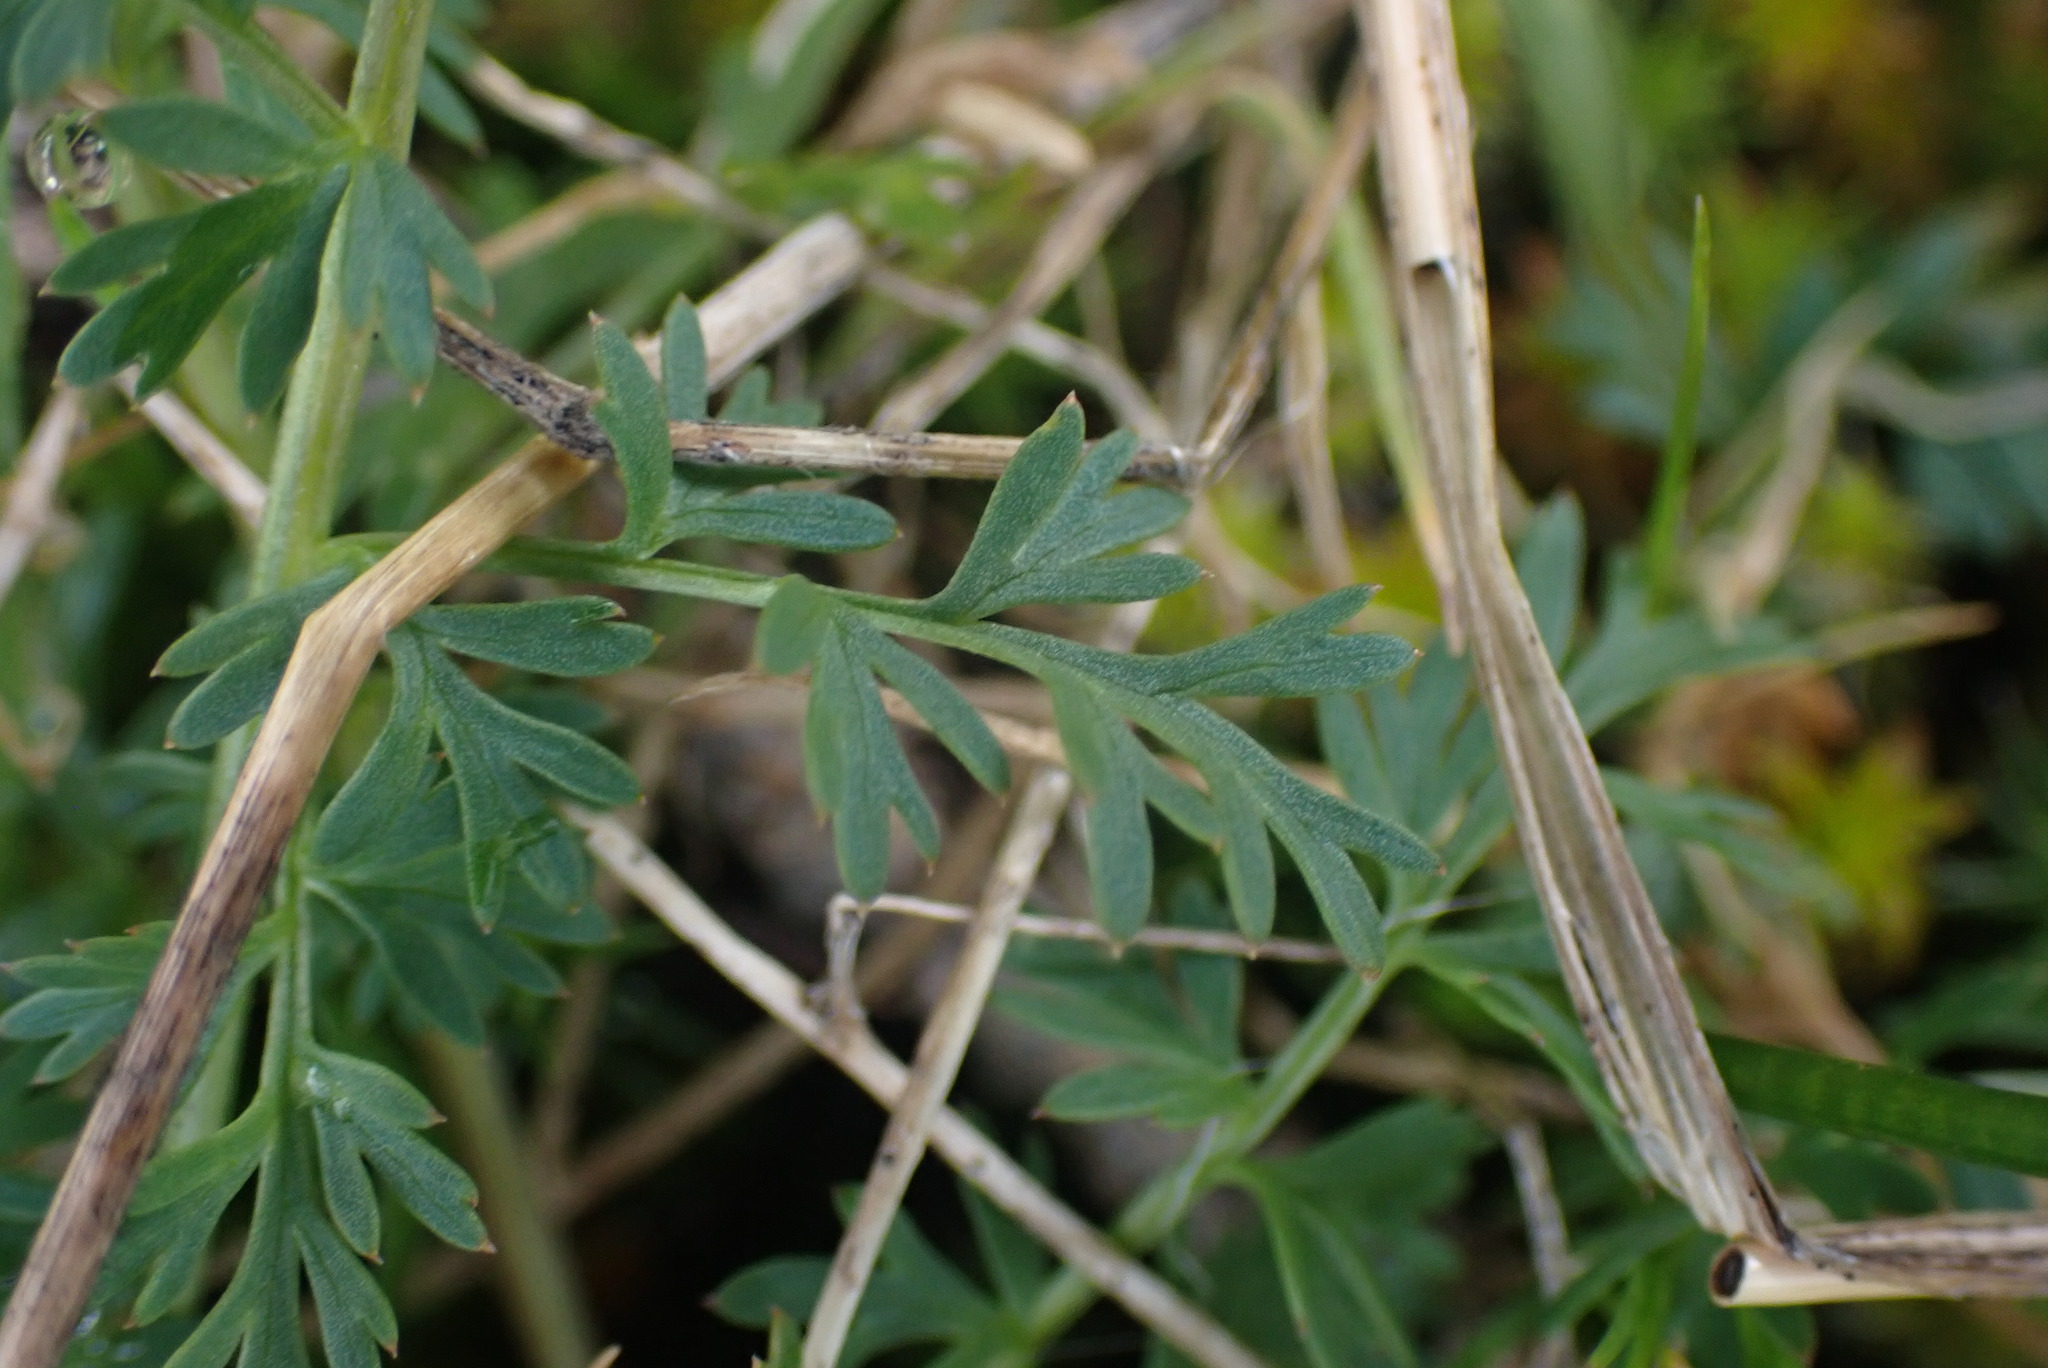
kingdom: Plantae
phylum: Tracheophyta
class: Magnoliopsida
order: Apiales
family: Apiaceae
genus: Lomatium
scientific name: Lomatium utriculatum
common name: Fine-leaf desert-parsley
